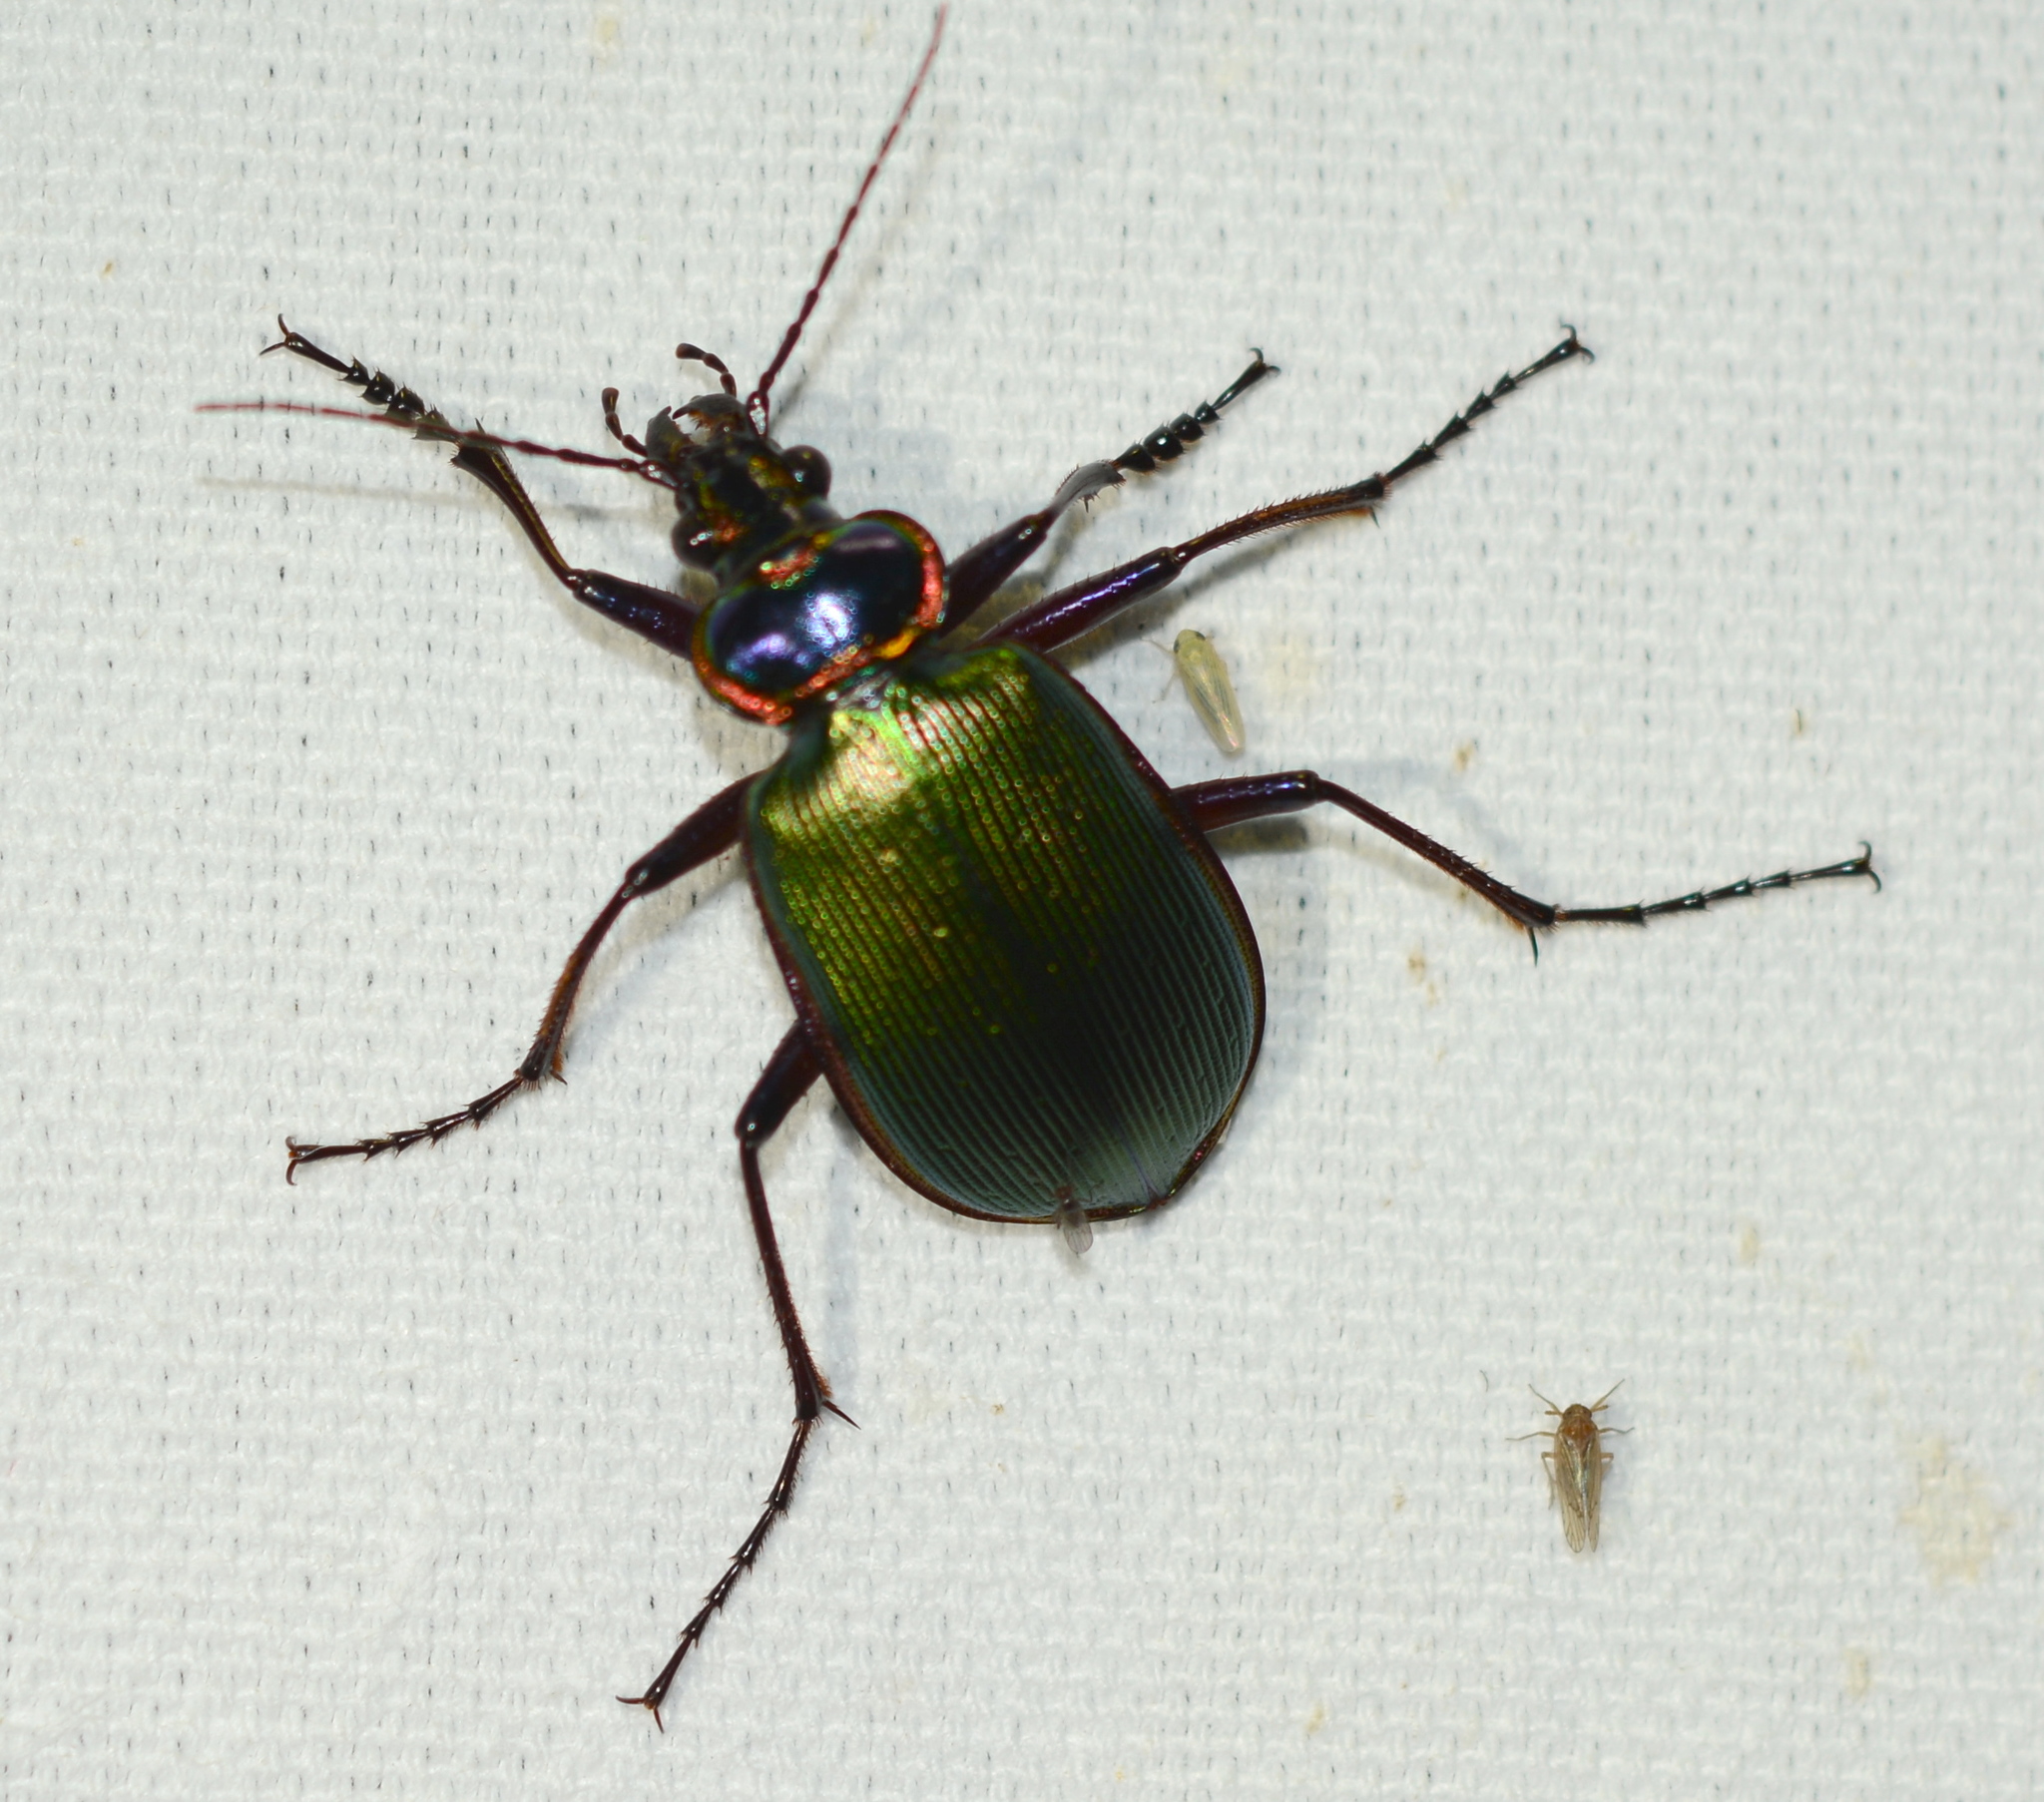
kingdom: Animalia
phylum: Arthropoda
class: Insecta
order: Coleoptera
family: Carabidae
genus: Calosoma
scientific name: Calosoma scrutator
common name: Fiery searcher beetle
